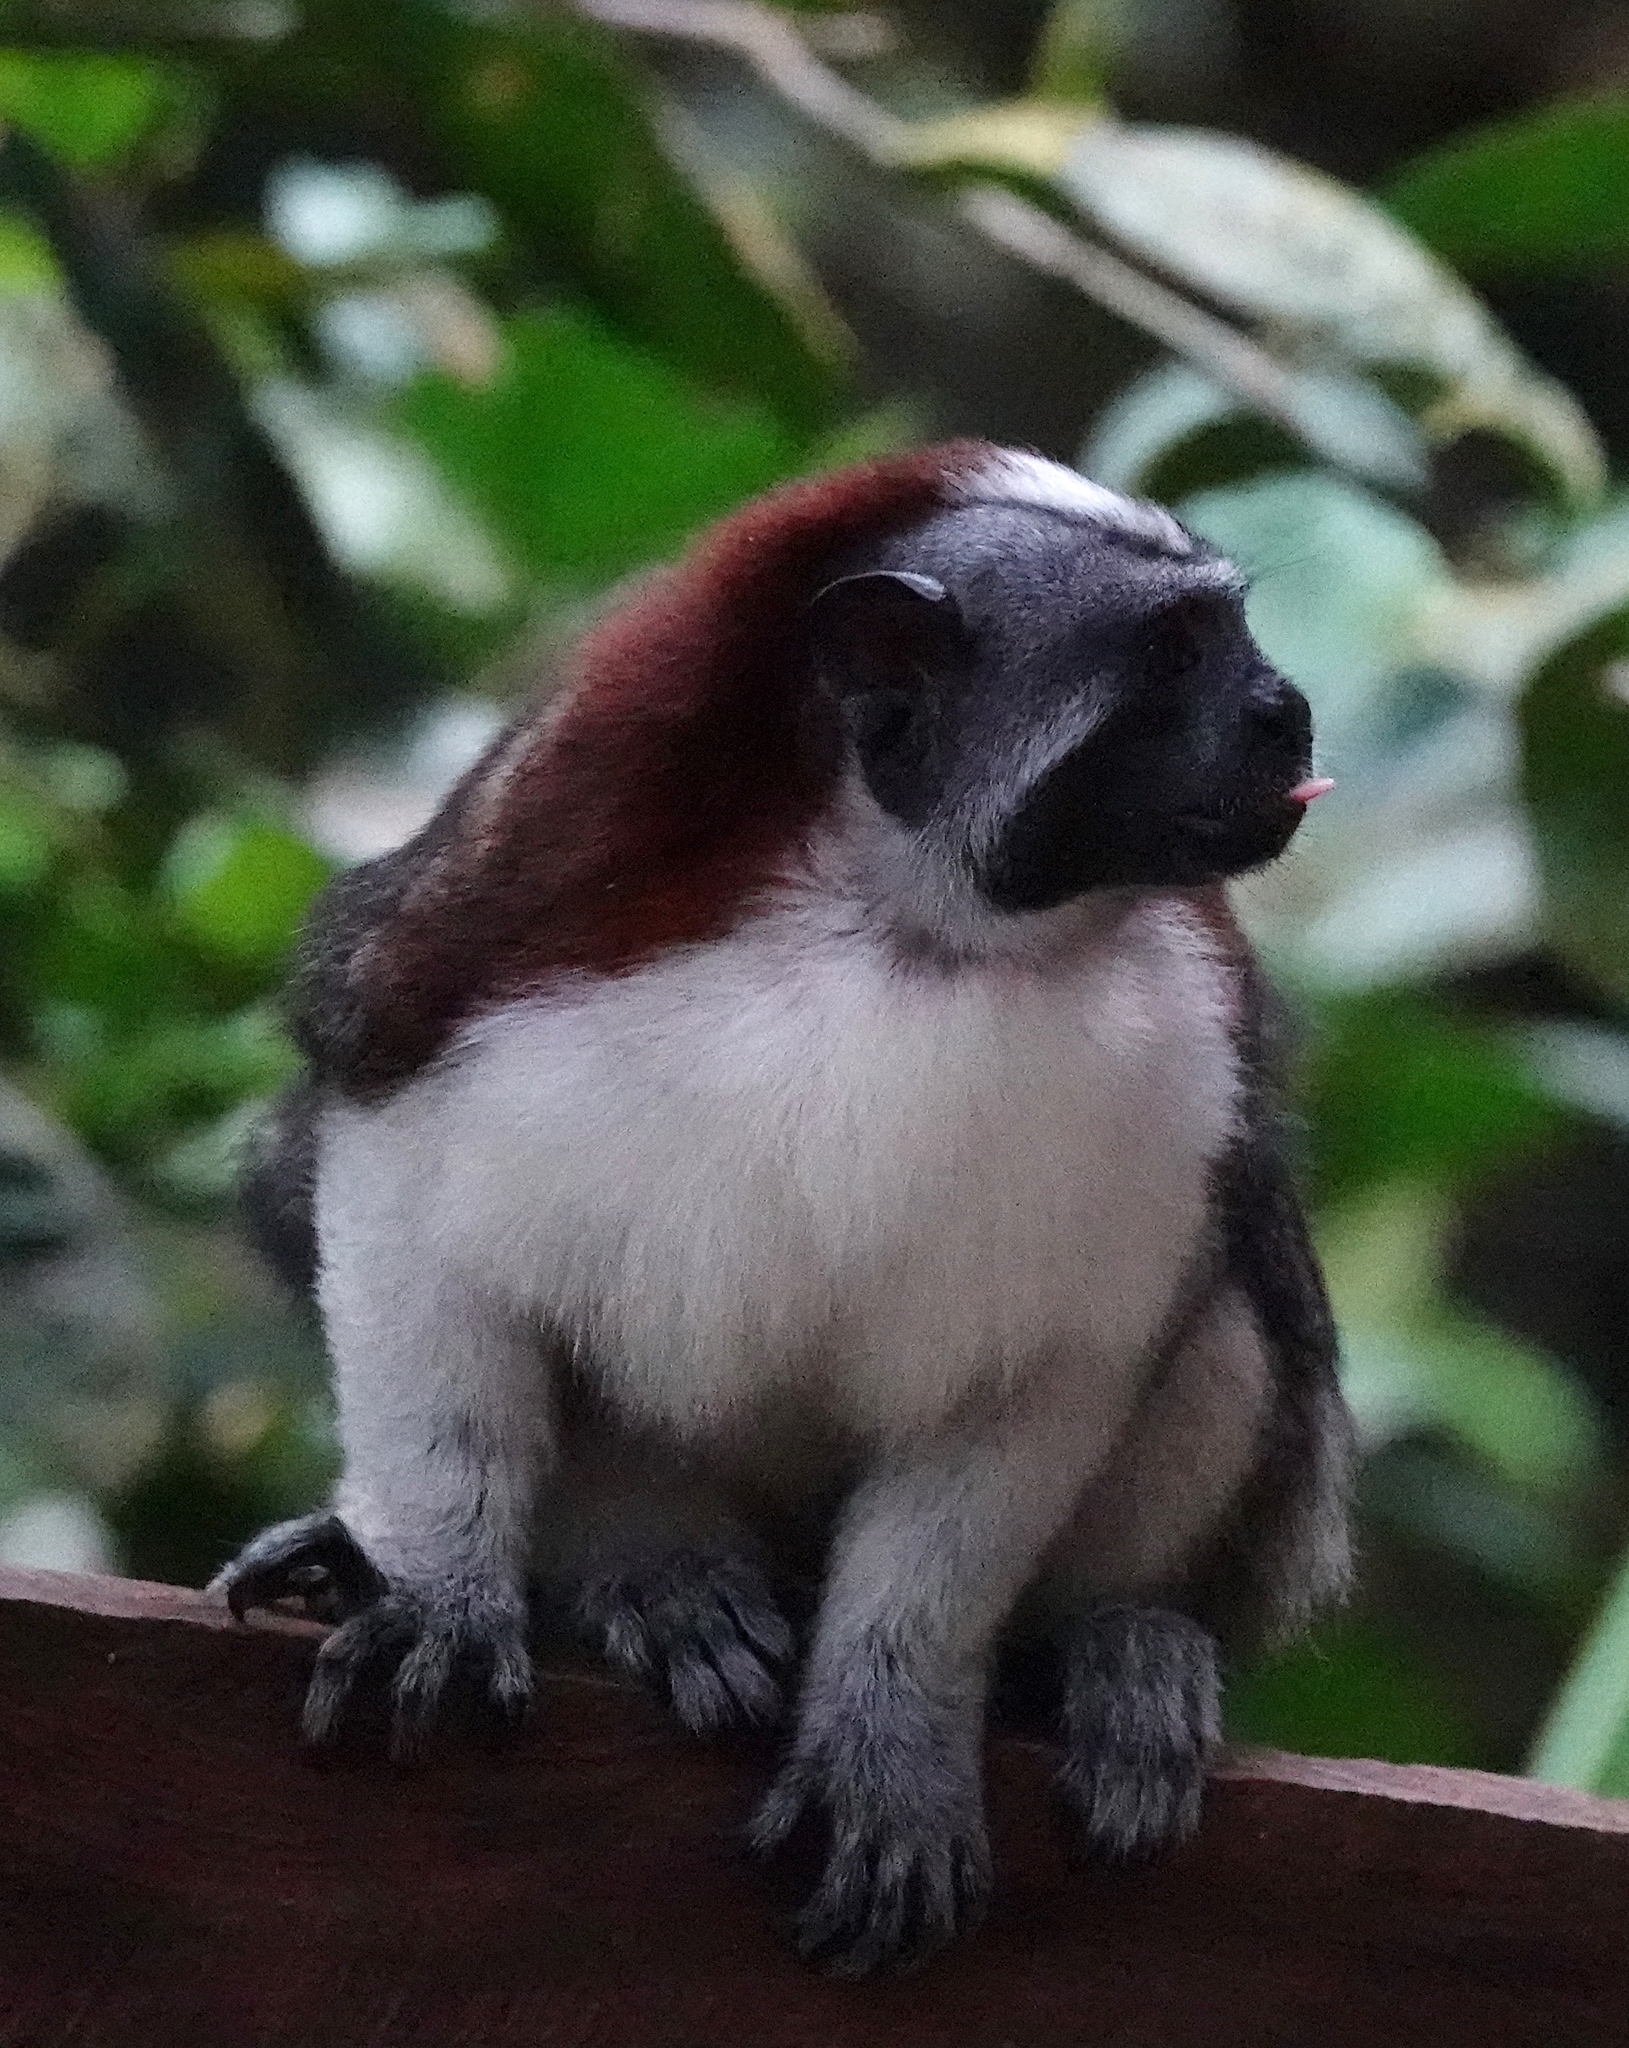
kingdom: Animalia
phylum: Chordata
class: Mammalia
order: Primates
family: Callitrichidae
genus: Saguinus
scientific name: Saguinus geoffroyi
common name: Geoffroy s tamarin
